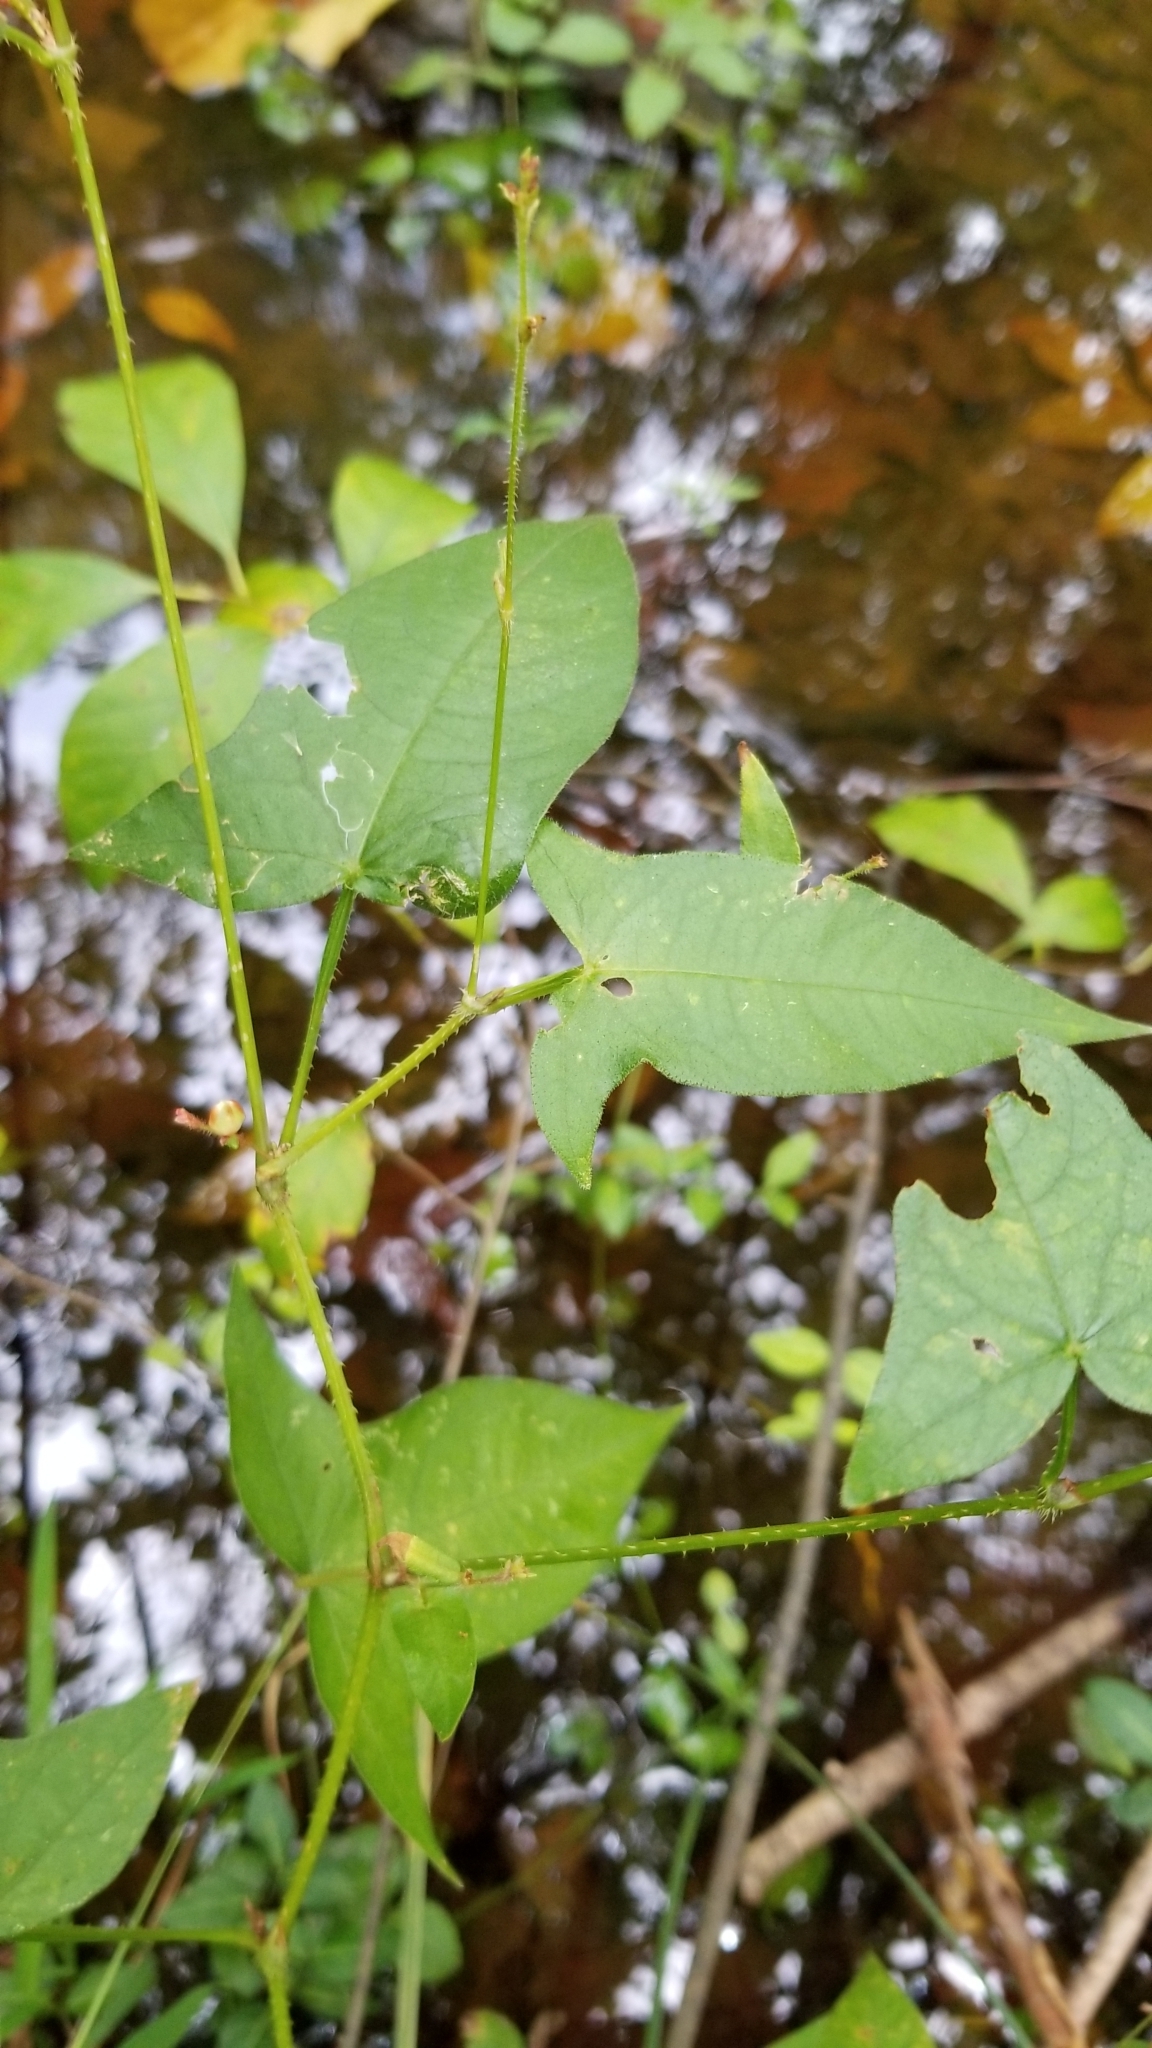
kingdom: Plantae
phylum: Tracheophyta
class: Magnoliopsida
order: Caryophyllales
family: Polygonaceae
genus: Persicaria
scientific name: Persicaria arifolia
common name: Halberd-leaved tear-thumb
